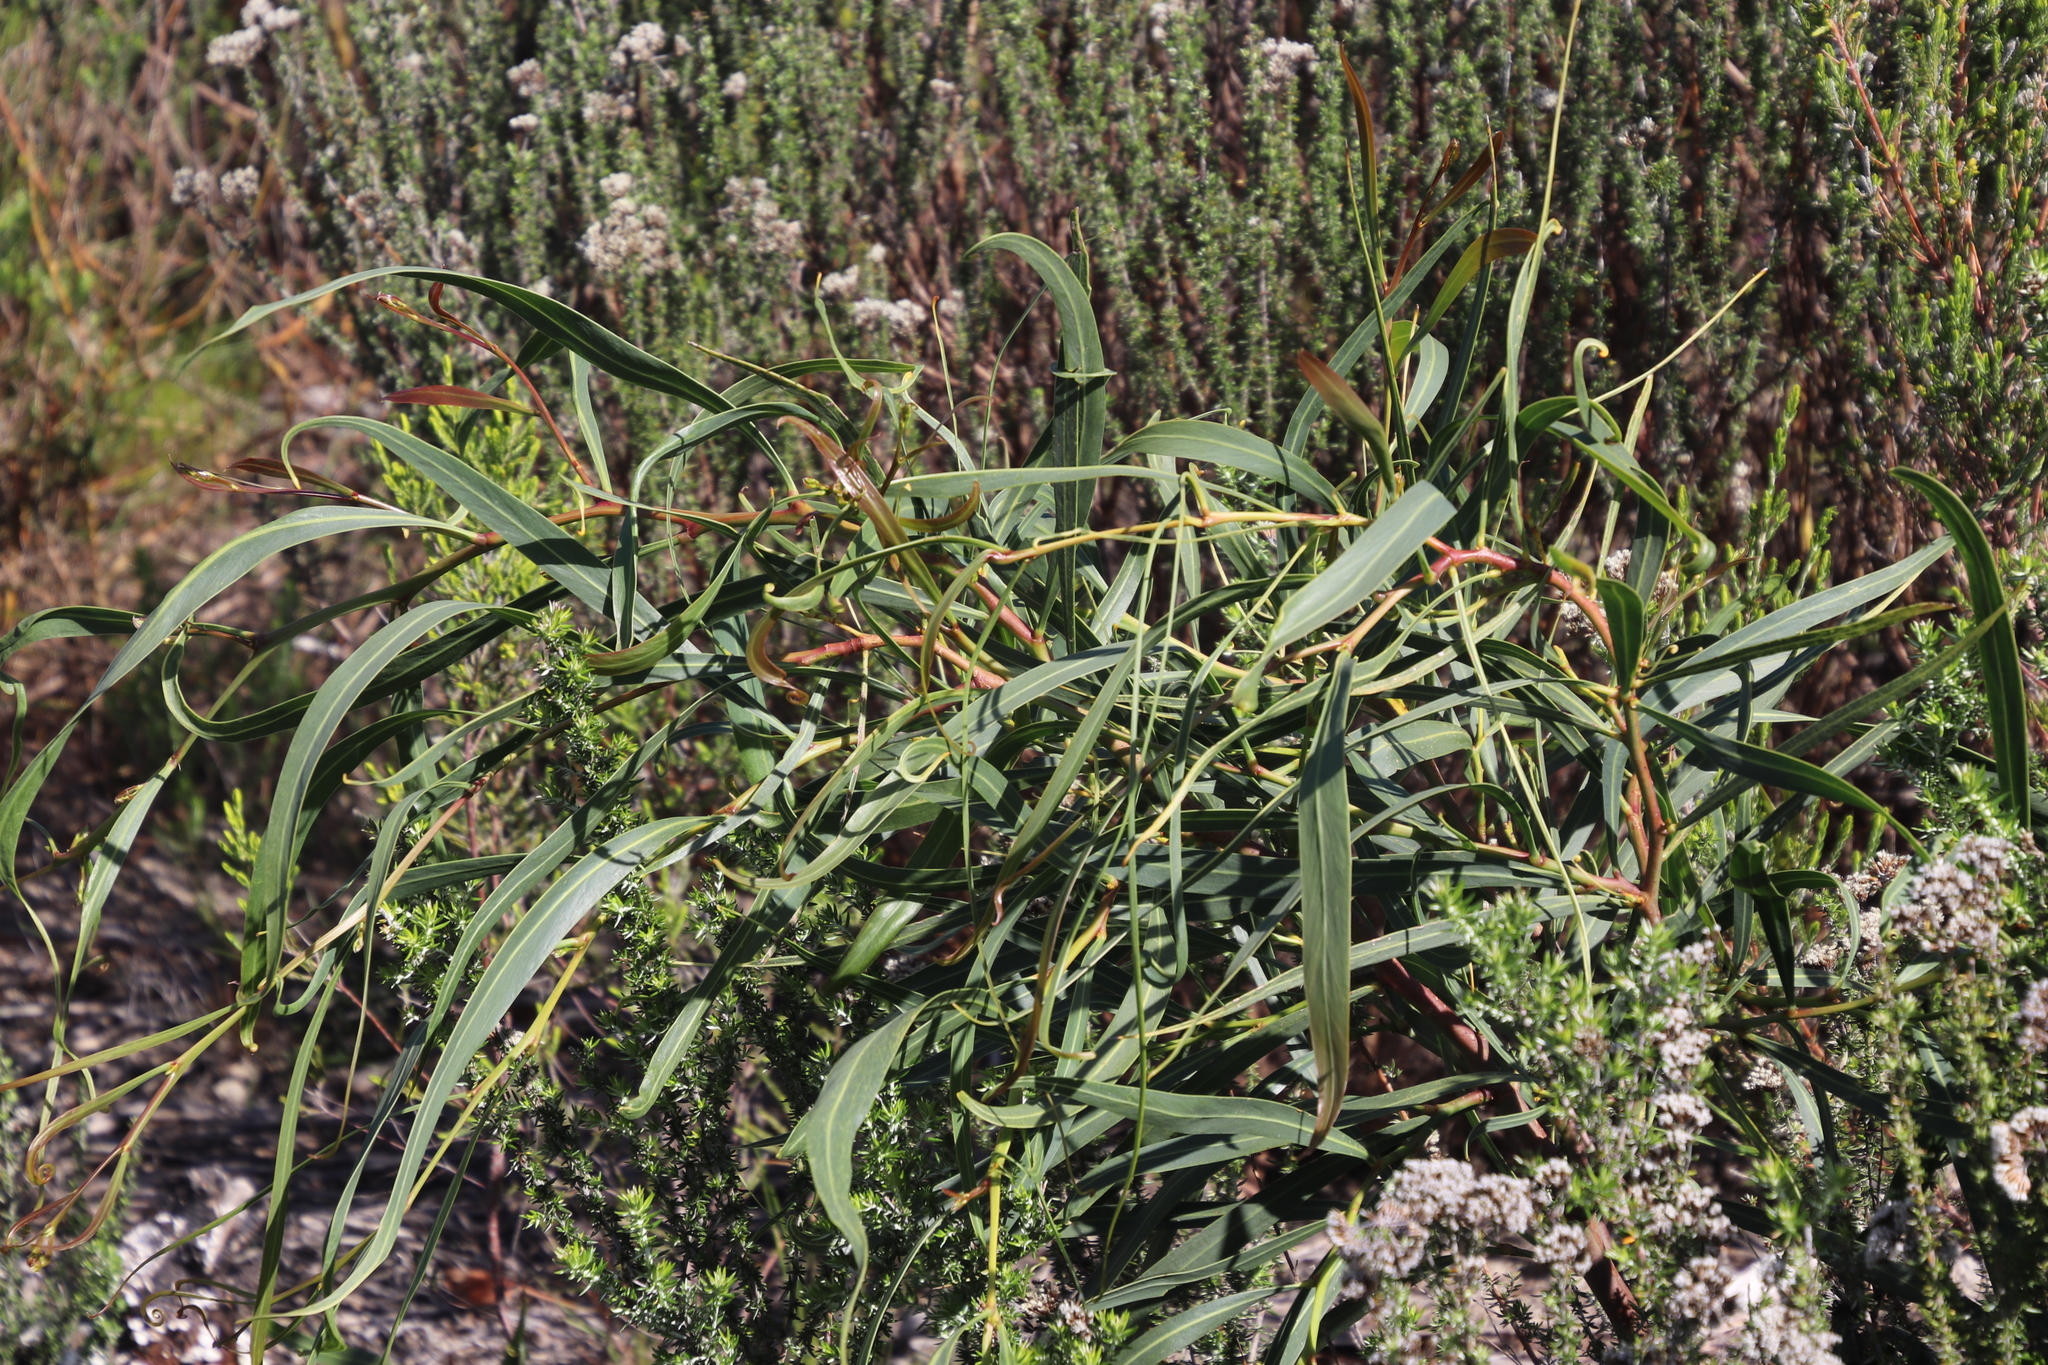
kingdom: Plantae
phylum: Tracheophyta
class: Magnoliopsida
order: Fabales
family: Fabaceae
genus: Acacia
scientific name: Acacia saligna
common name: Orange wattle
